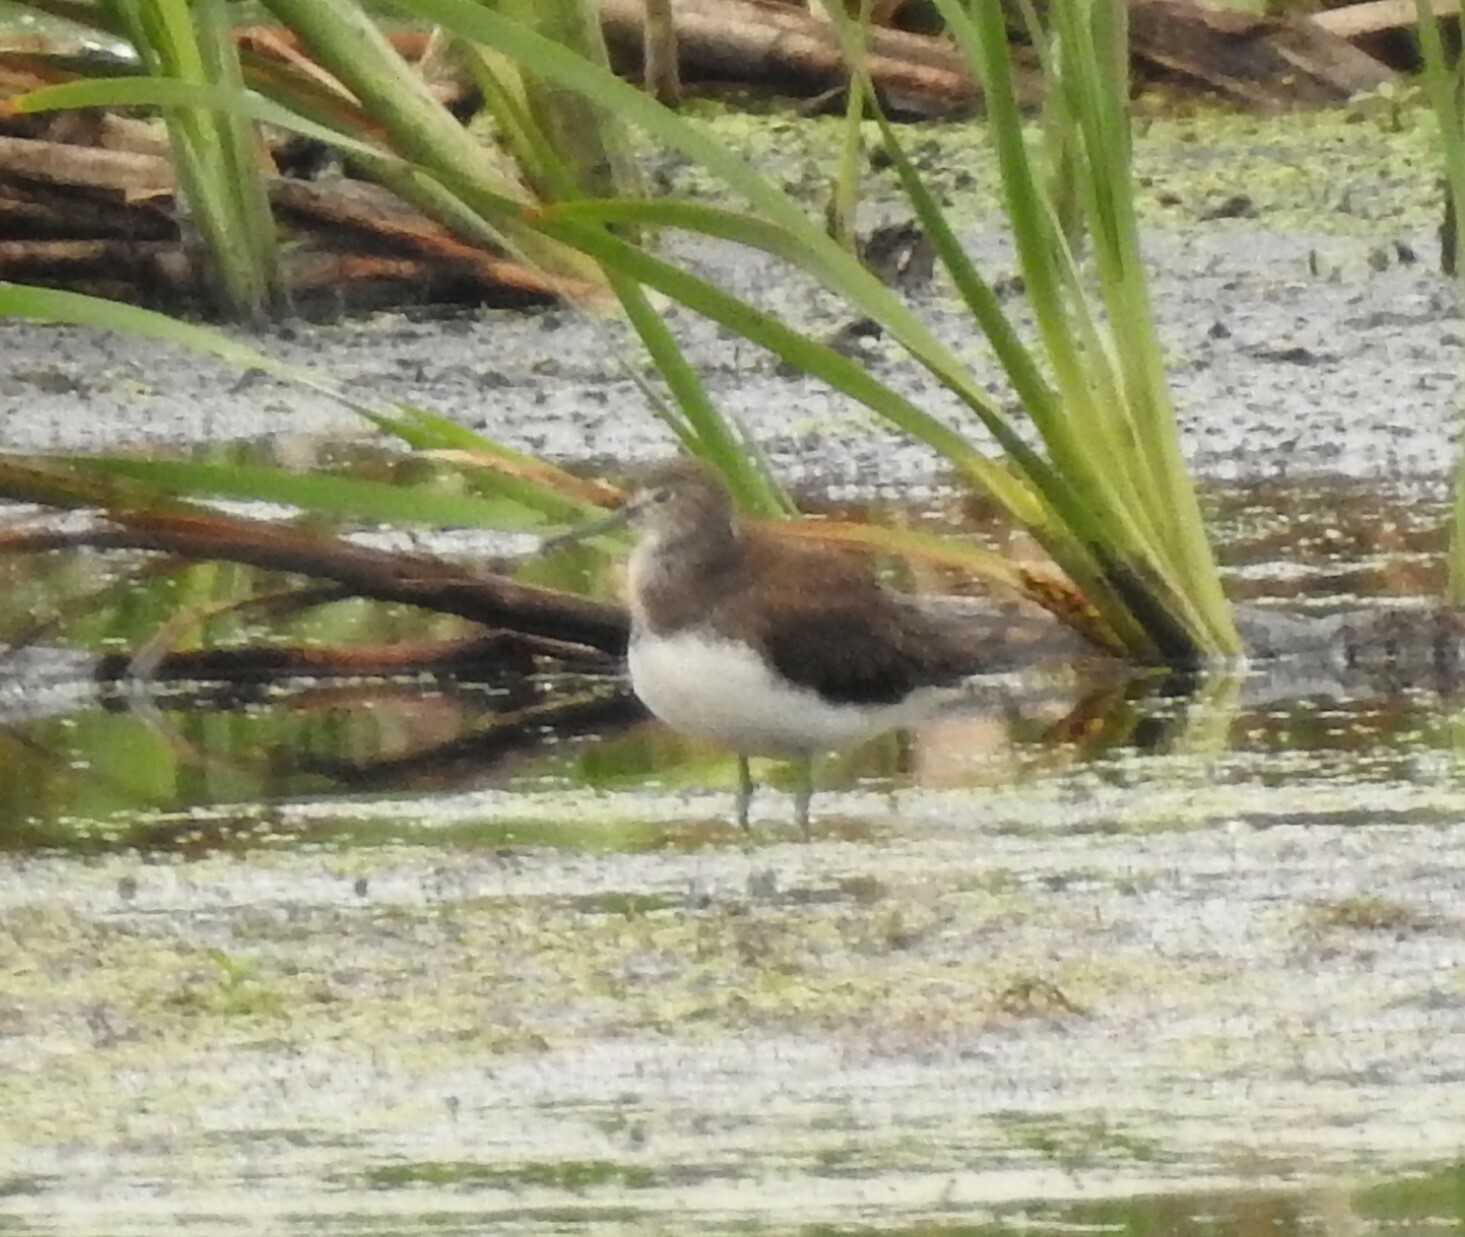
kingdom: Animalia
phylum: Chordata
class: Aves
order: Charadriiformes
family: Scolopacidae
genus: Tringa
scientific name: Tringa ochropus
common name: Green sandpiper
